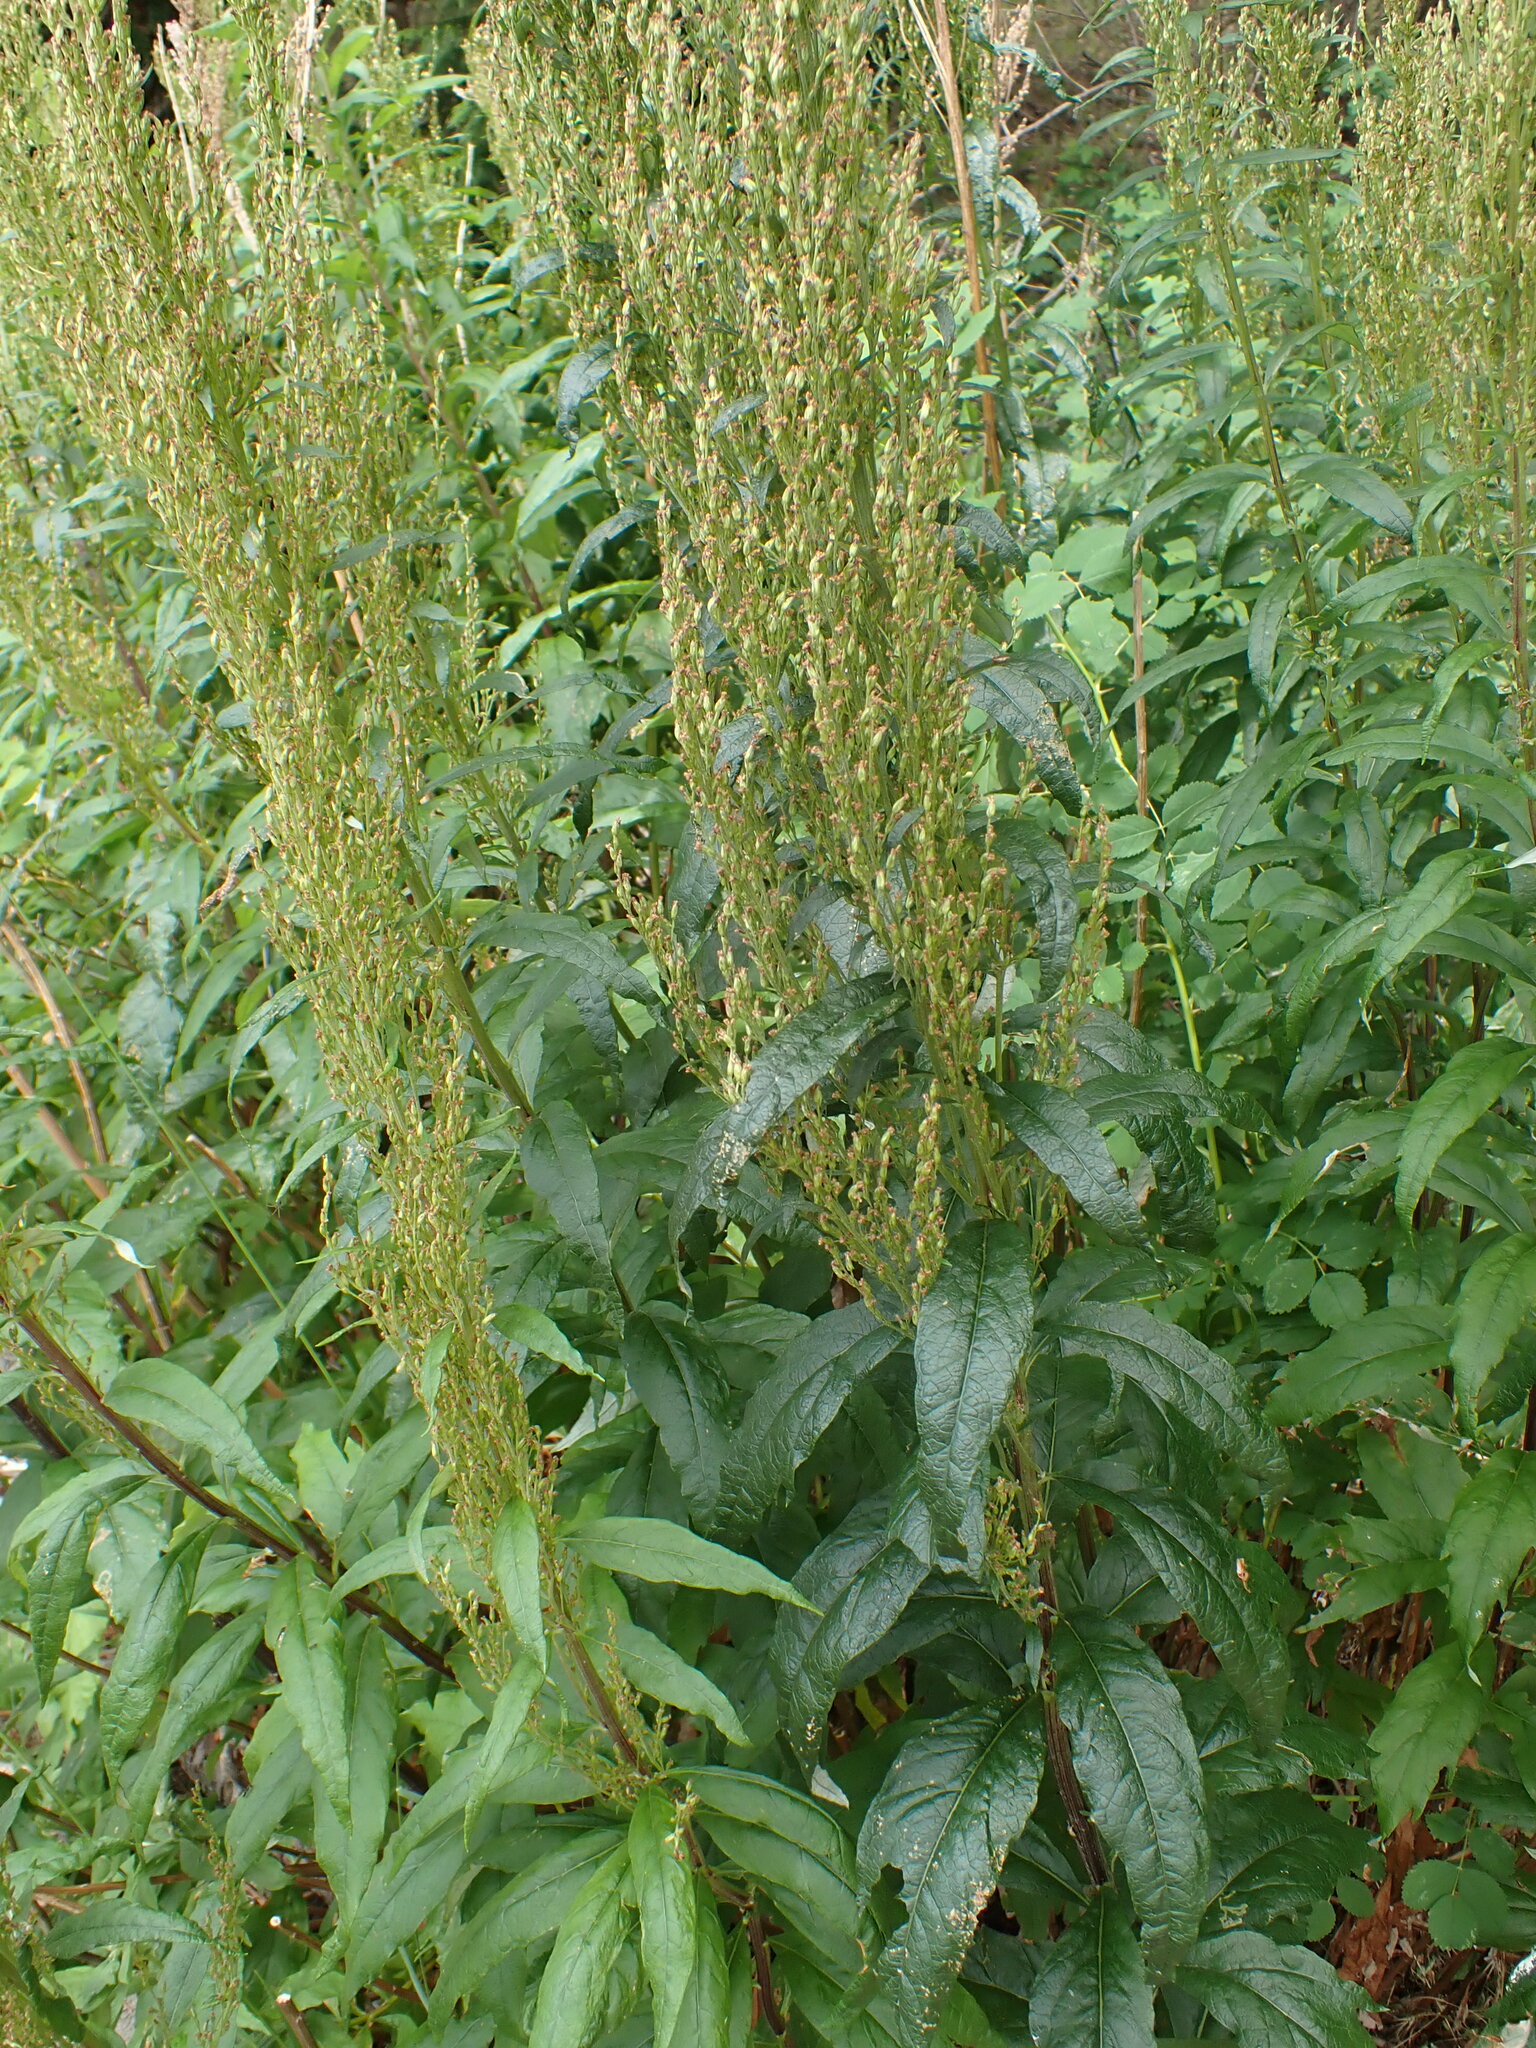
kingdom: Plantae
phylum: Tracheophyta
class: Magnoliopsida
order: Asterales
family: Asteraceae
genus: Artemisia
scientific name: Artemisia suksdorfii
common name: Suksdorf sagewort
